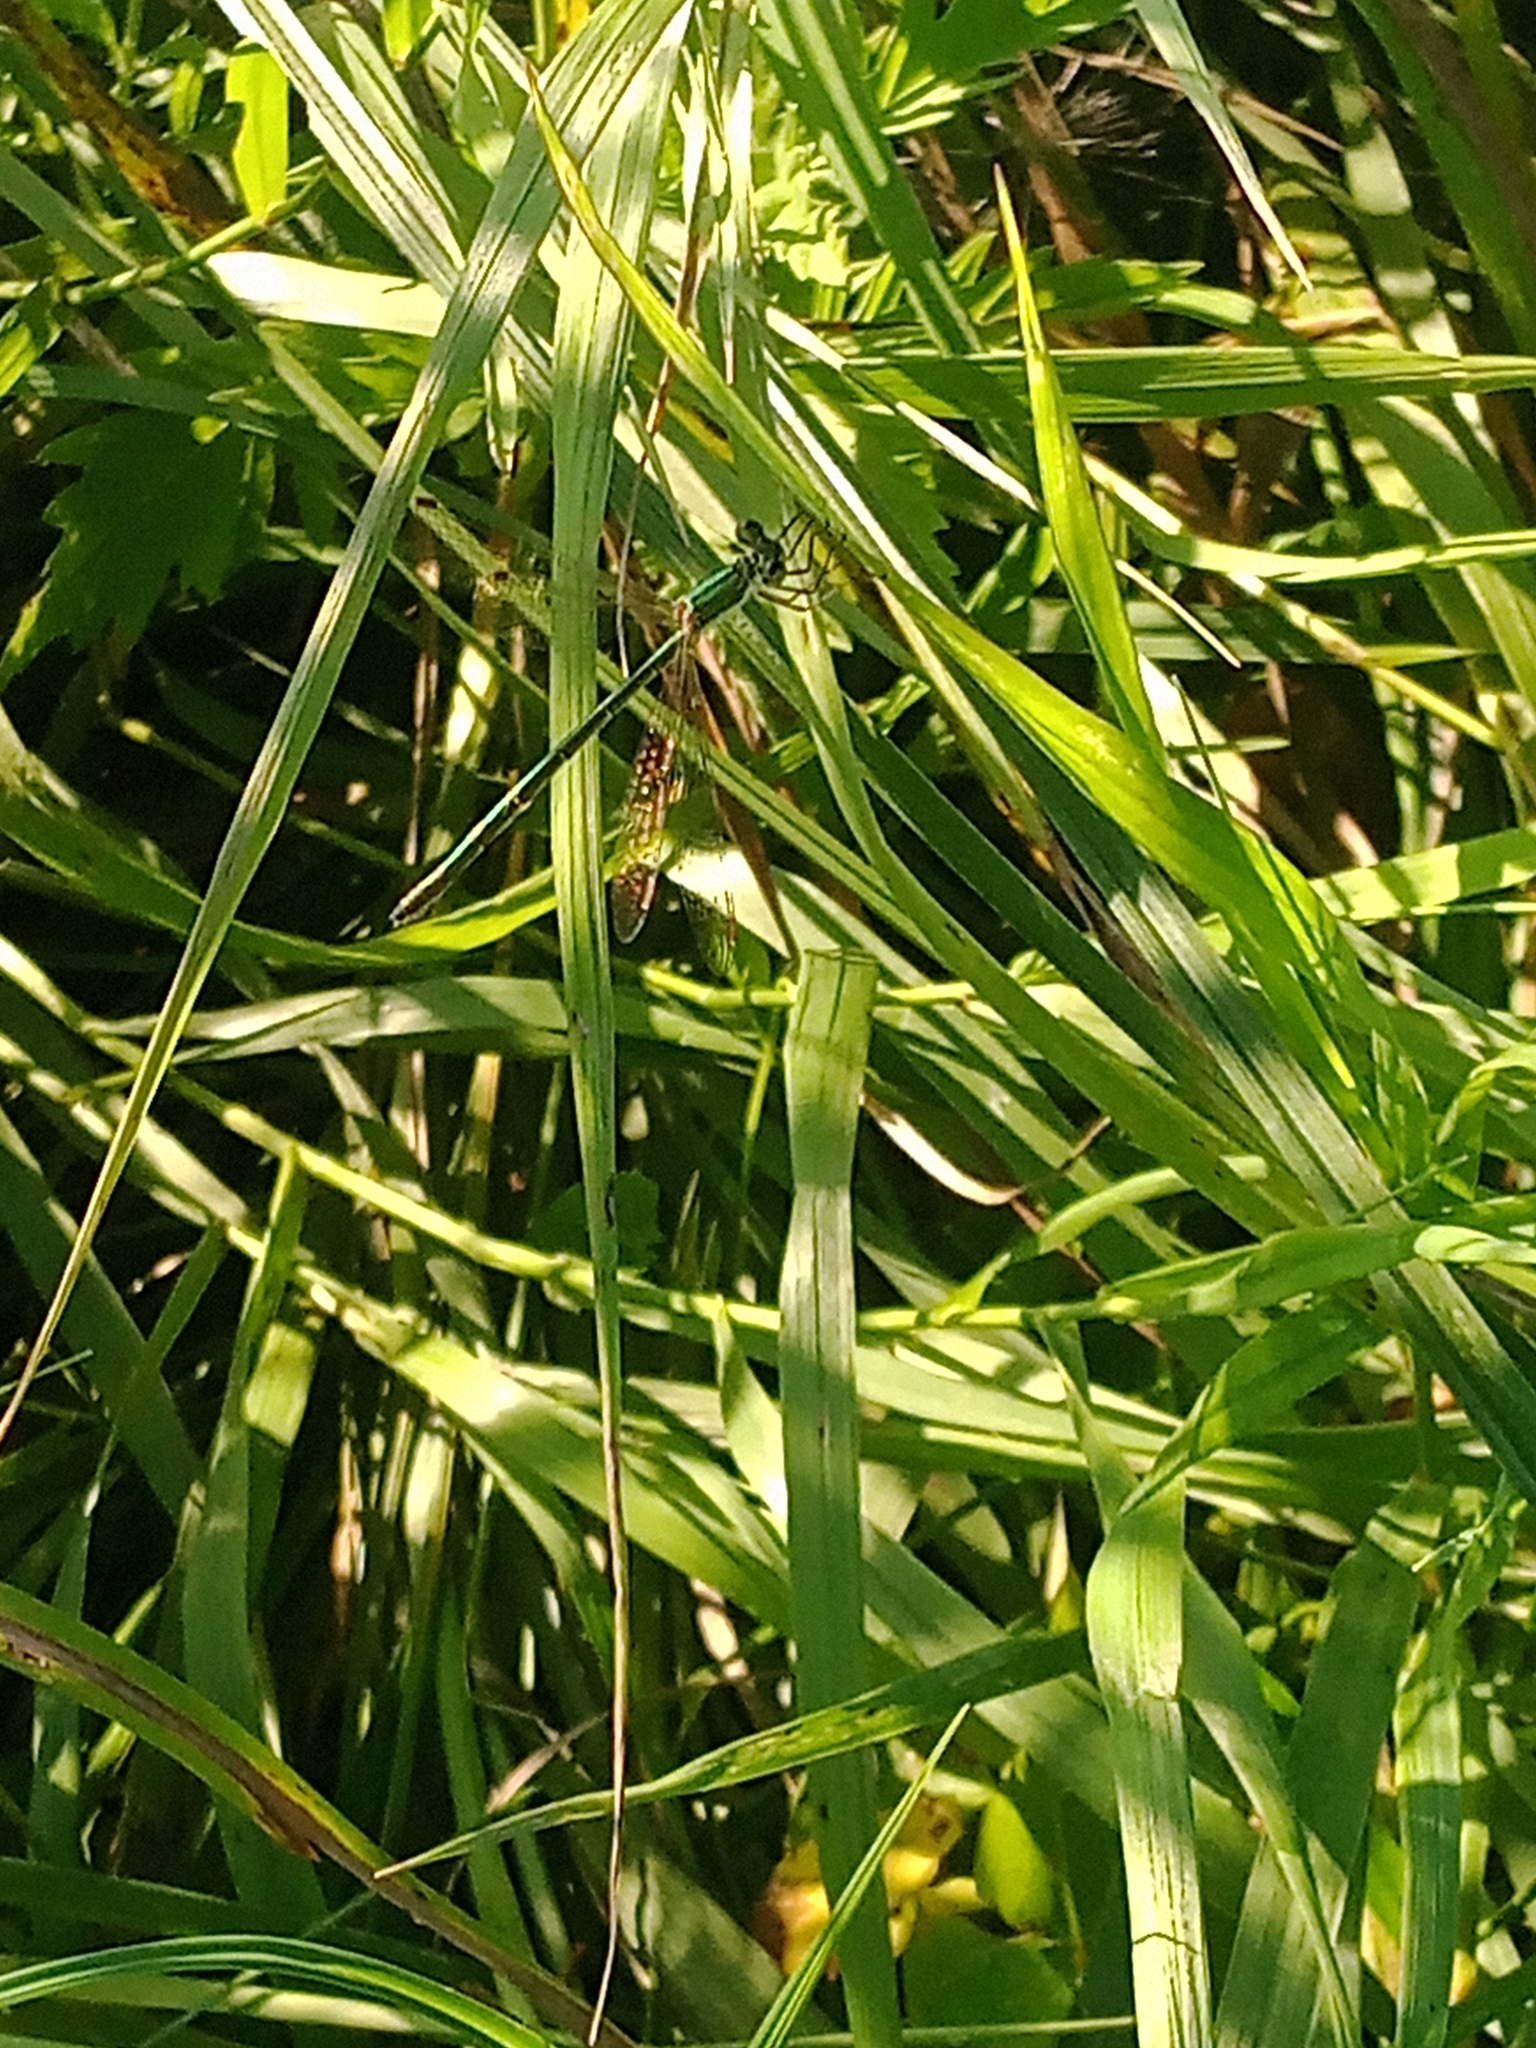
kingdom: Animalia
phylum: Arthropoda
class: Insecta
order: Odonata
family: Lestidae
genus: Lestes
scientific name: Lestes virens
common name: Small emerald spreadwing
